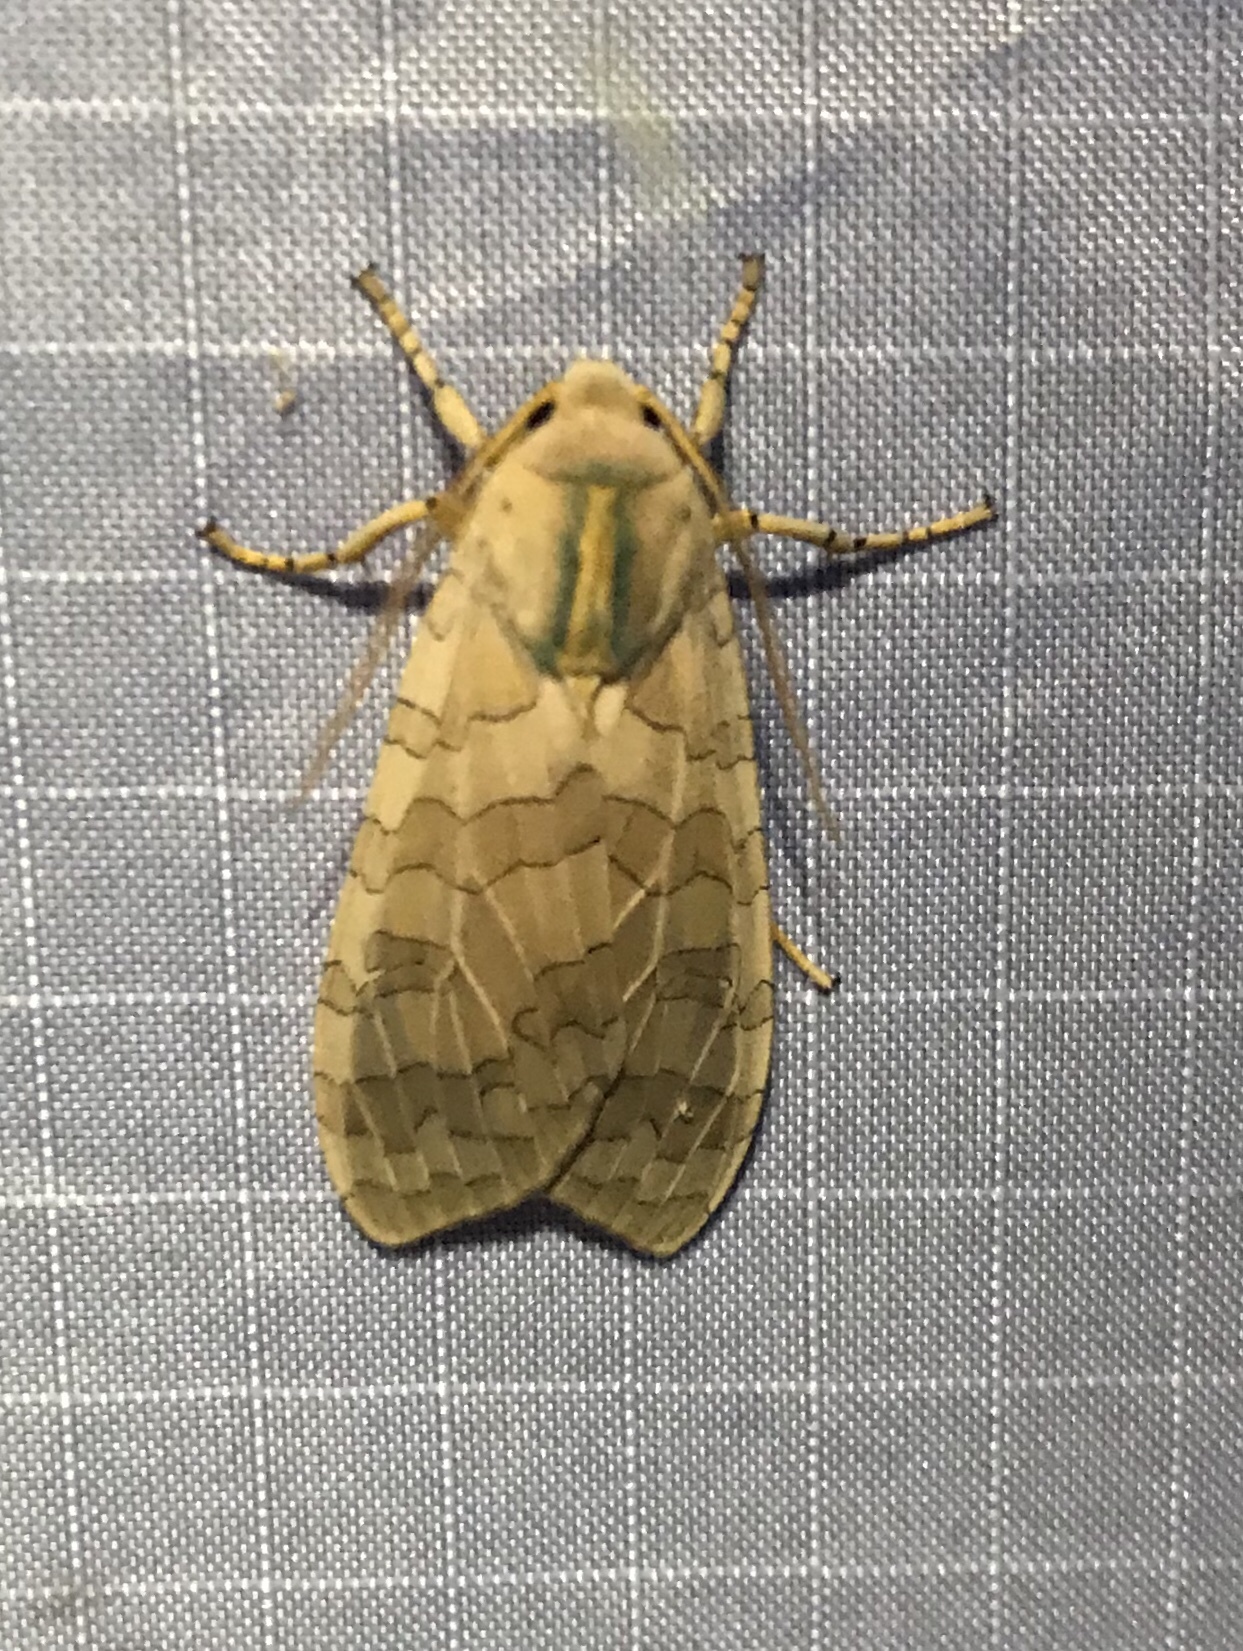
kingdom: Animalia
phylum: Arthropoda
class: Insecta
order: Lepidoptera
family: Erebidae
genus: Halysidota
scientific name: Halysidota
